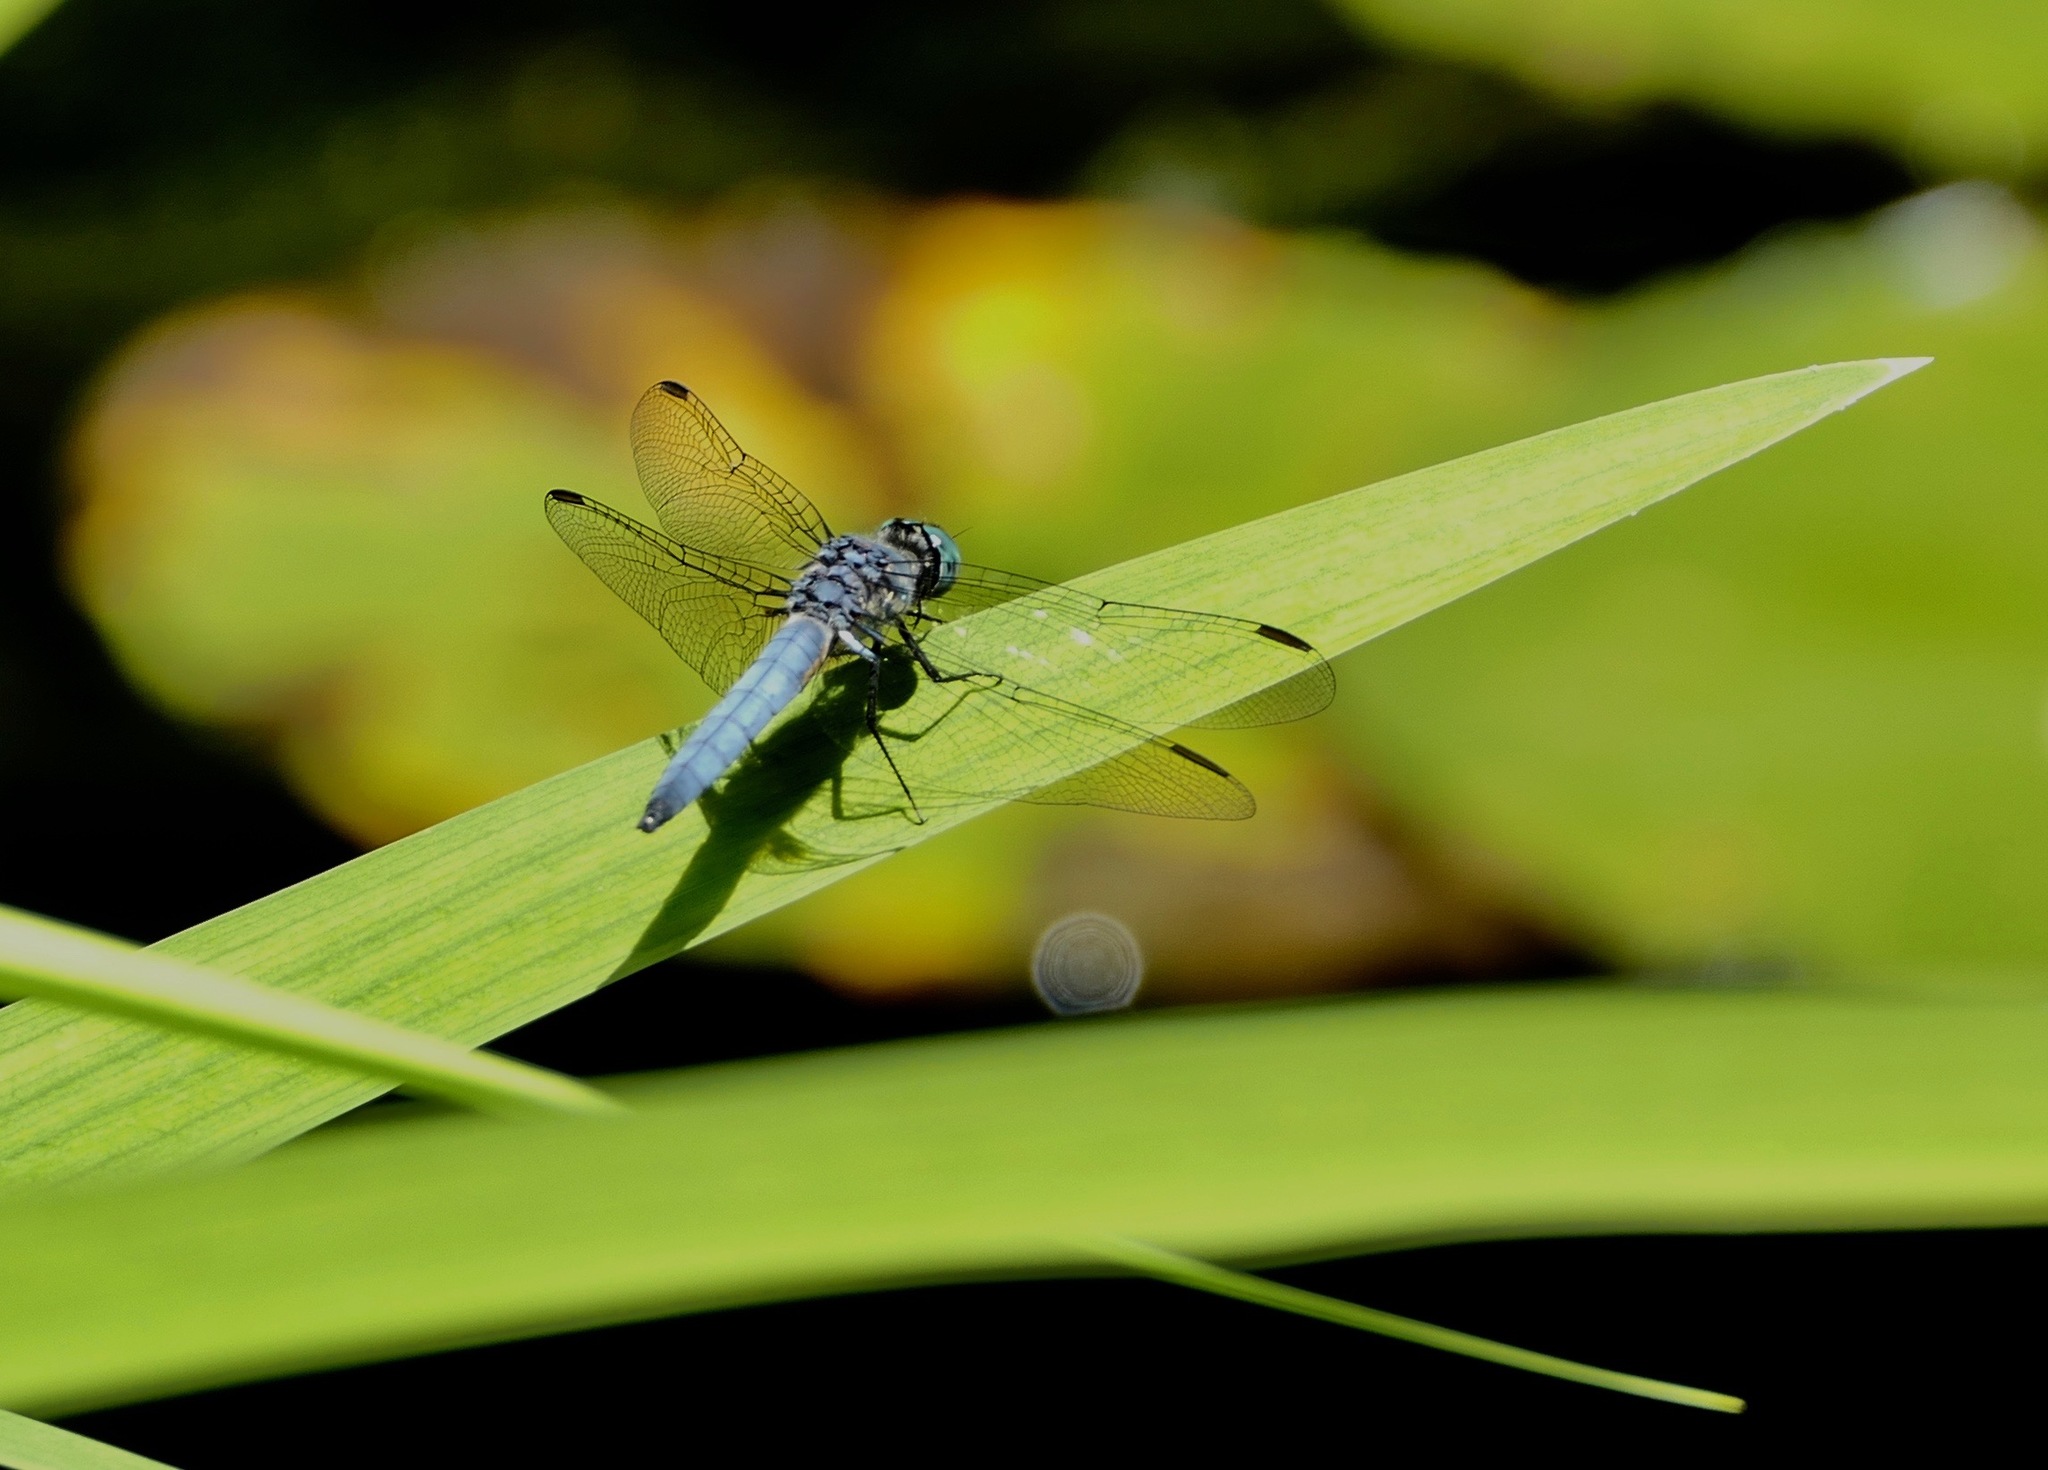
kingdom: Animalia
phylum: Arthropoda
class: Insecta
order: Odonata
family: Libellulidae
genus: Pachydiplax
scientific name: Pachydiplax longipennis
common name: Blue dasher
